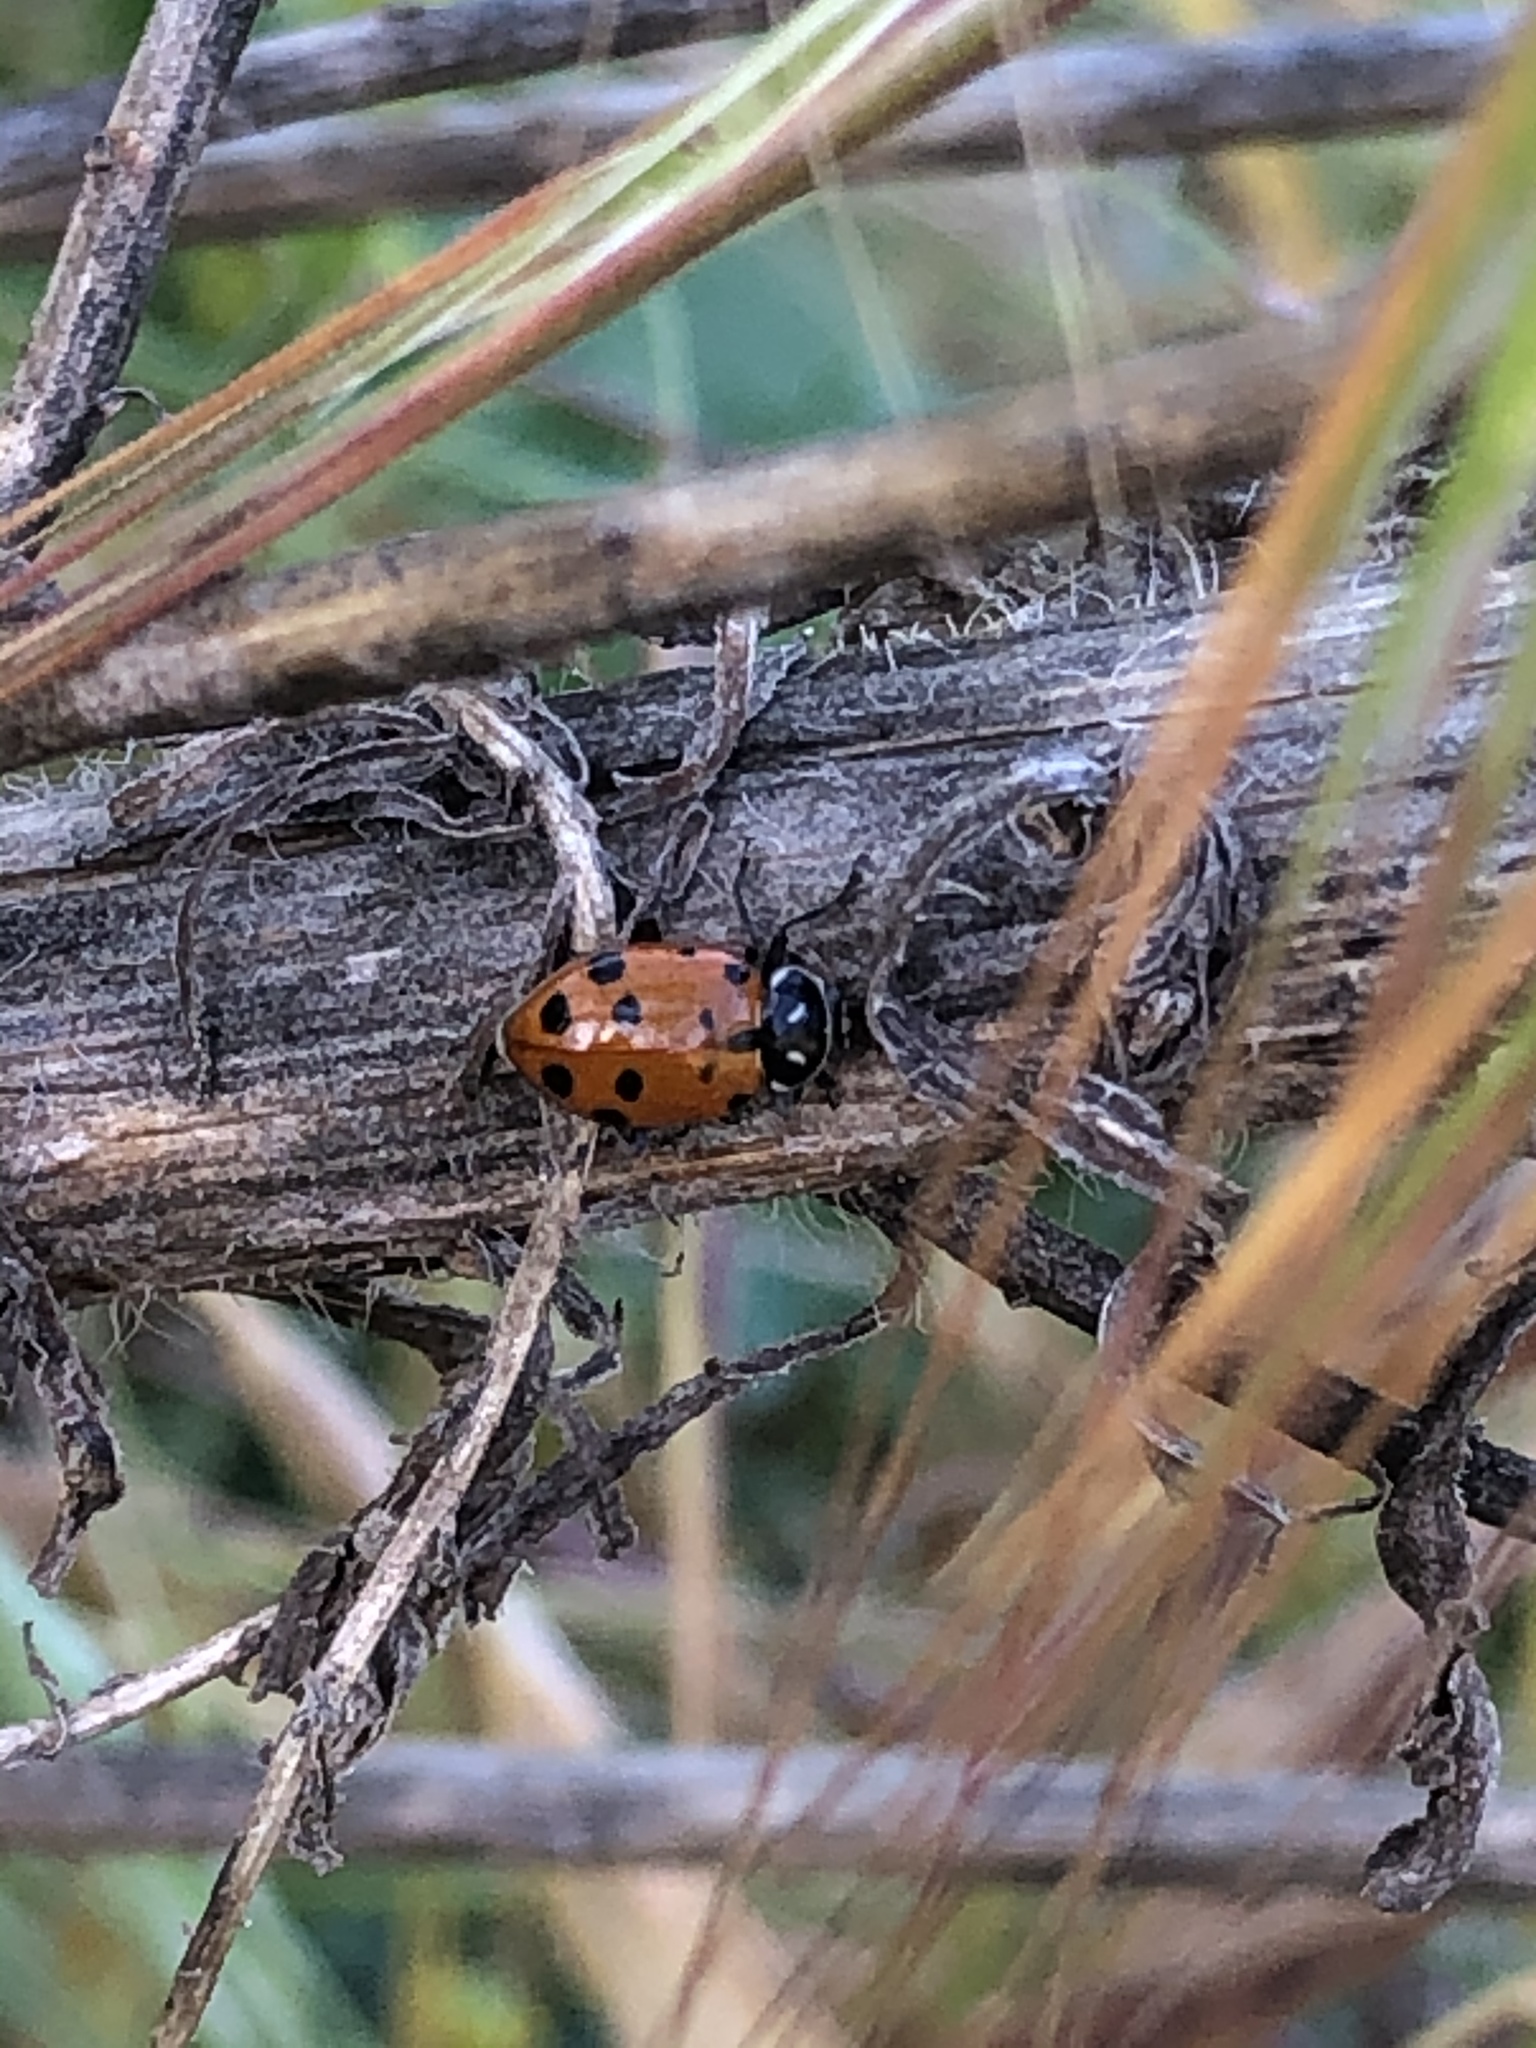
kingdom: Animalia
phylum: Arthropoda
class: Insecta
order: Coleoptera
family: Coccinellidae
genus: Hippodamia
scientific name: Hippodamia convergens
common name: Convergent lady beetle
